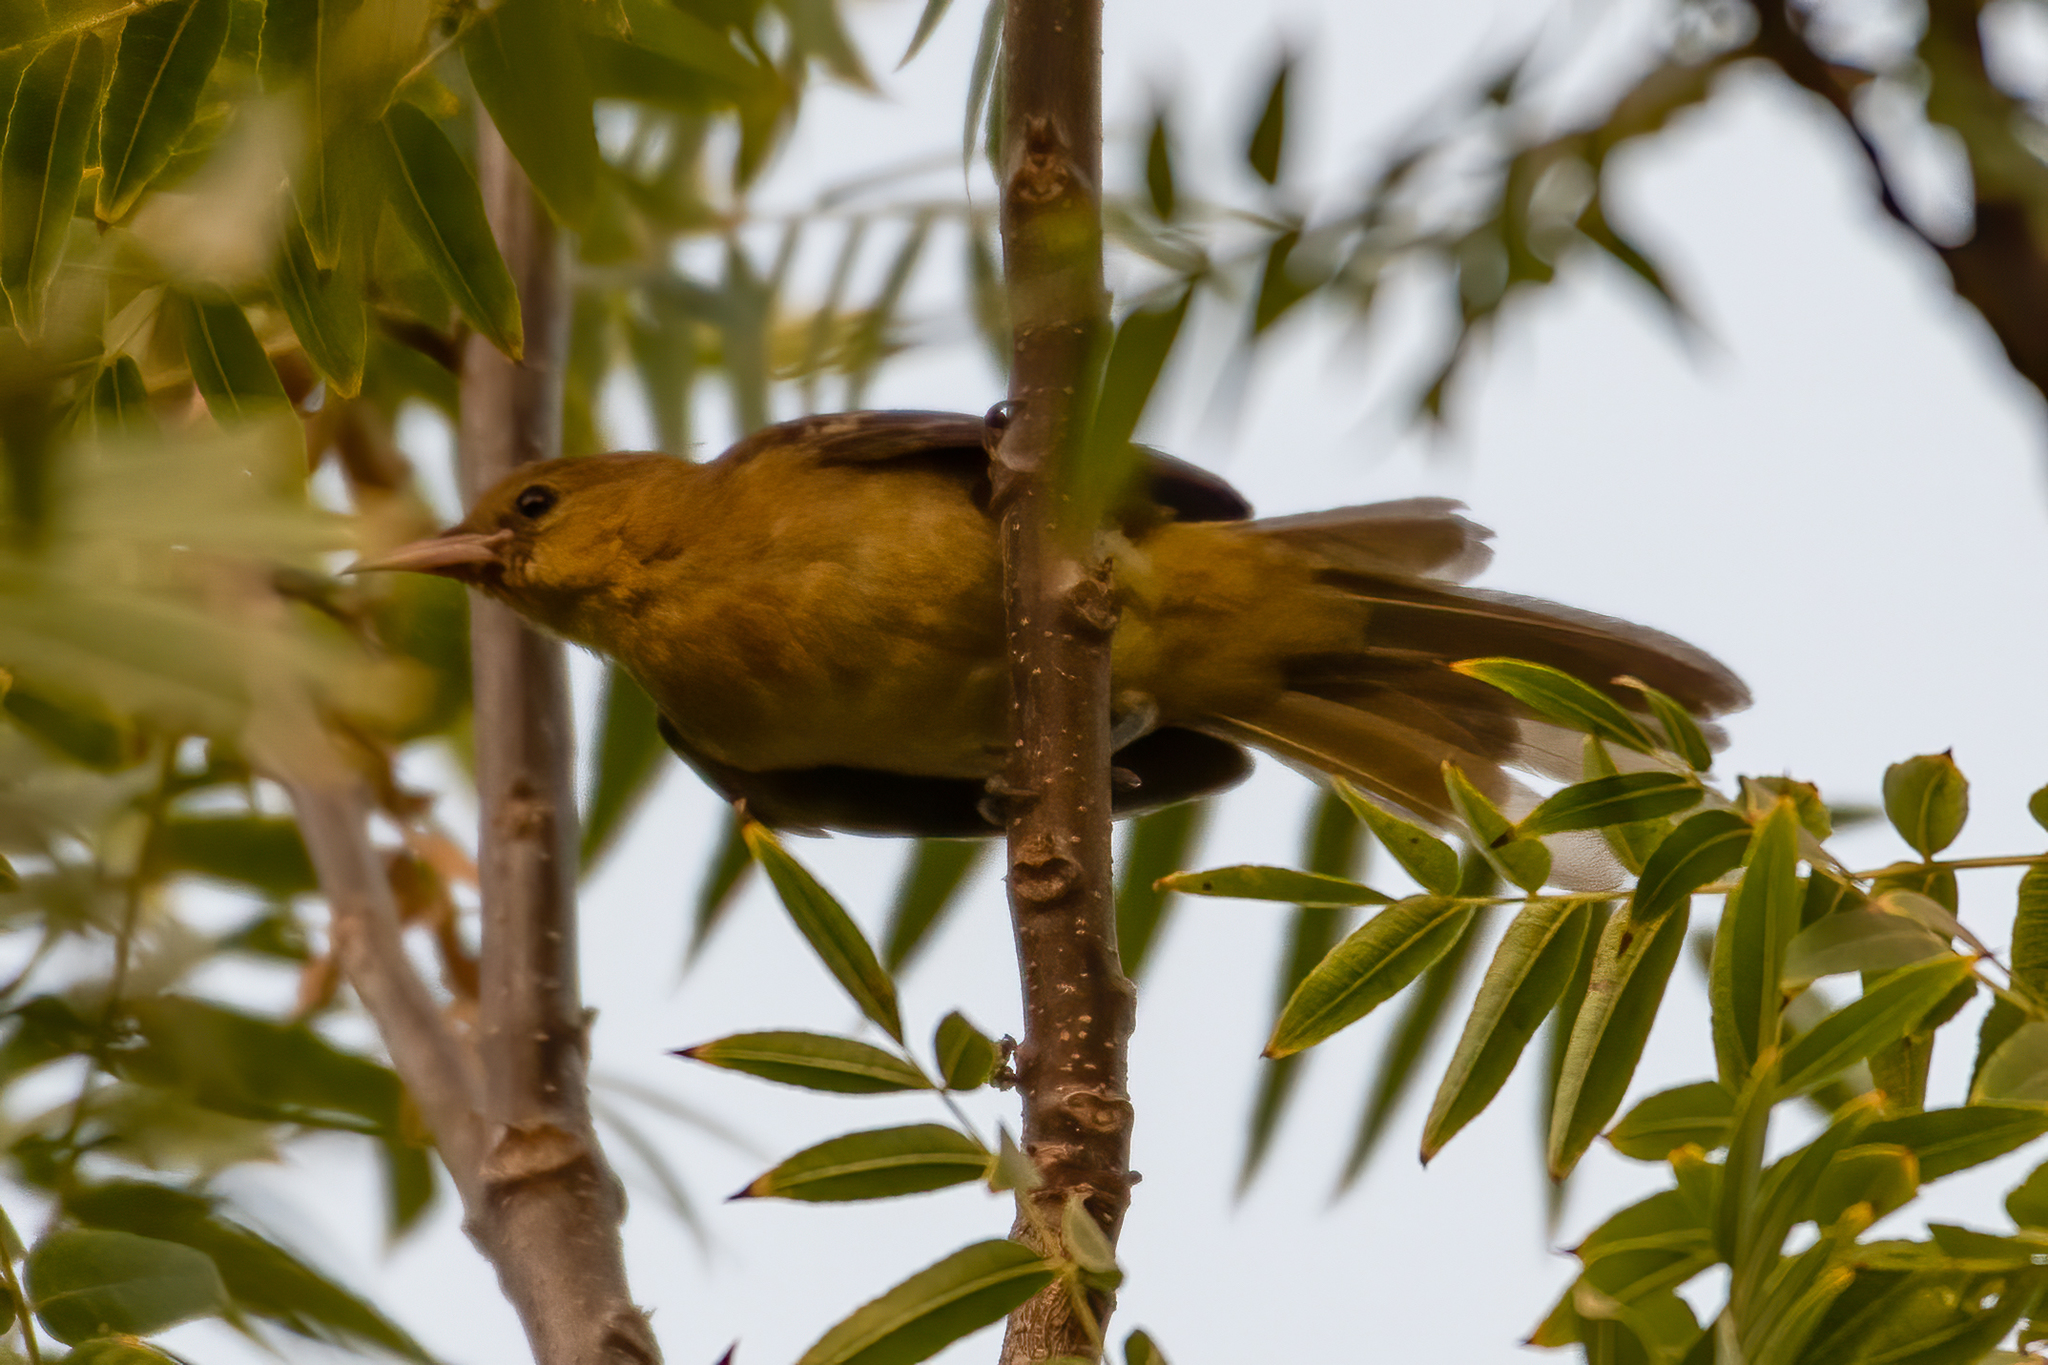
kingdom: Animalia
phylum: Chordata
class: Aves
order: Passeriformes
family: Icteridae
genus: Icterus
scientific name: Icterus cucullatus
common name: Hooded oriole
